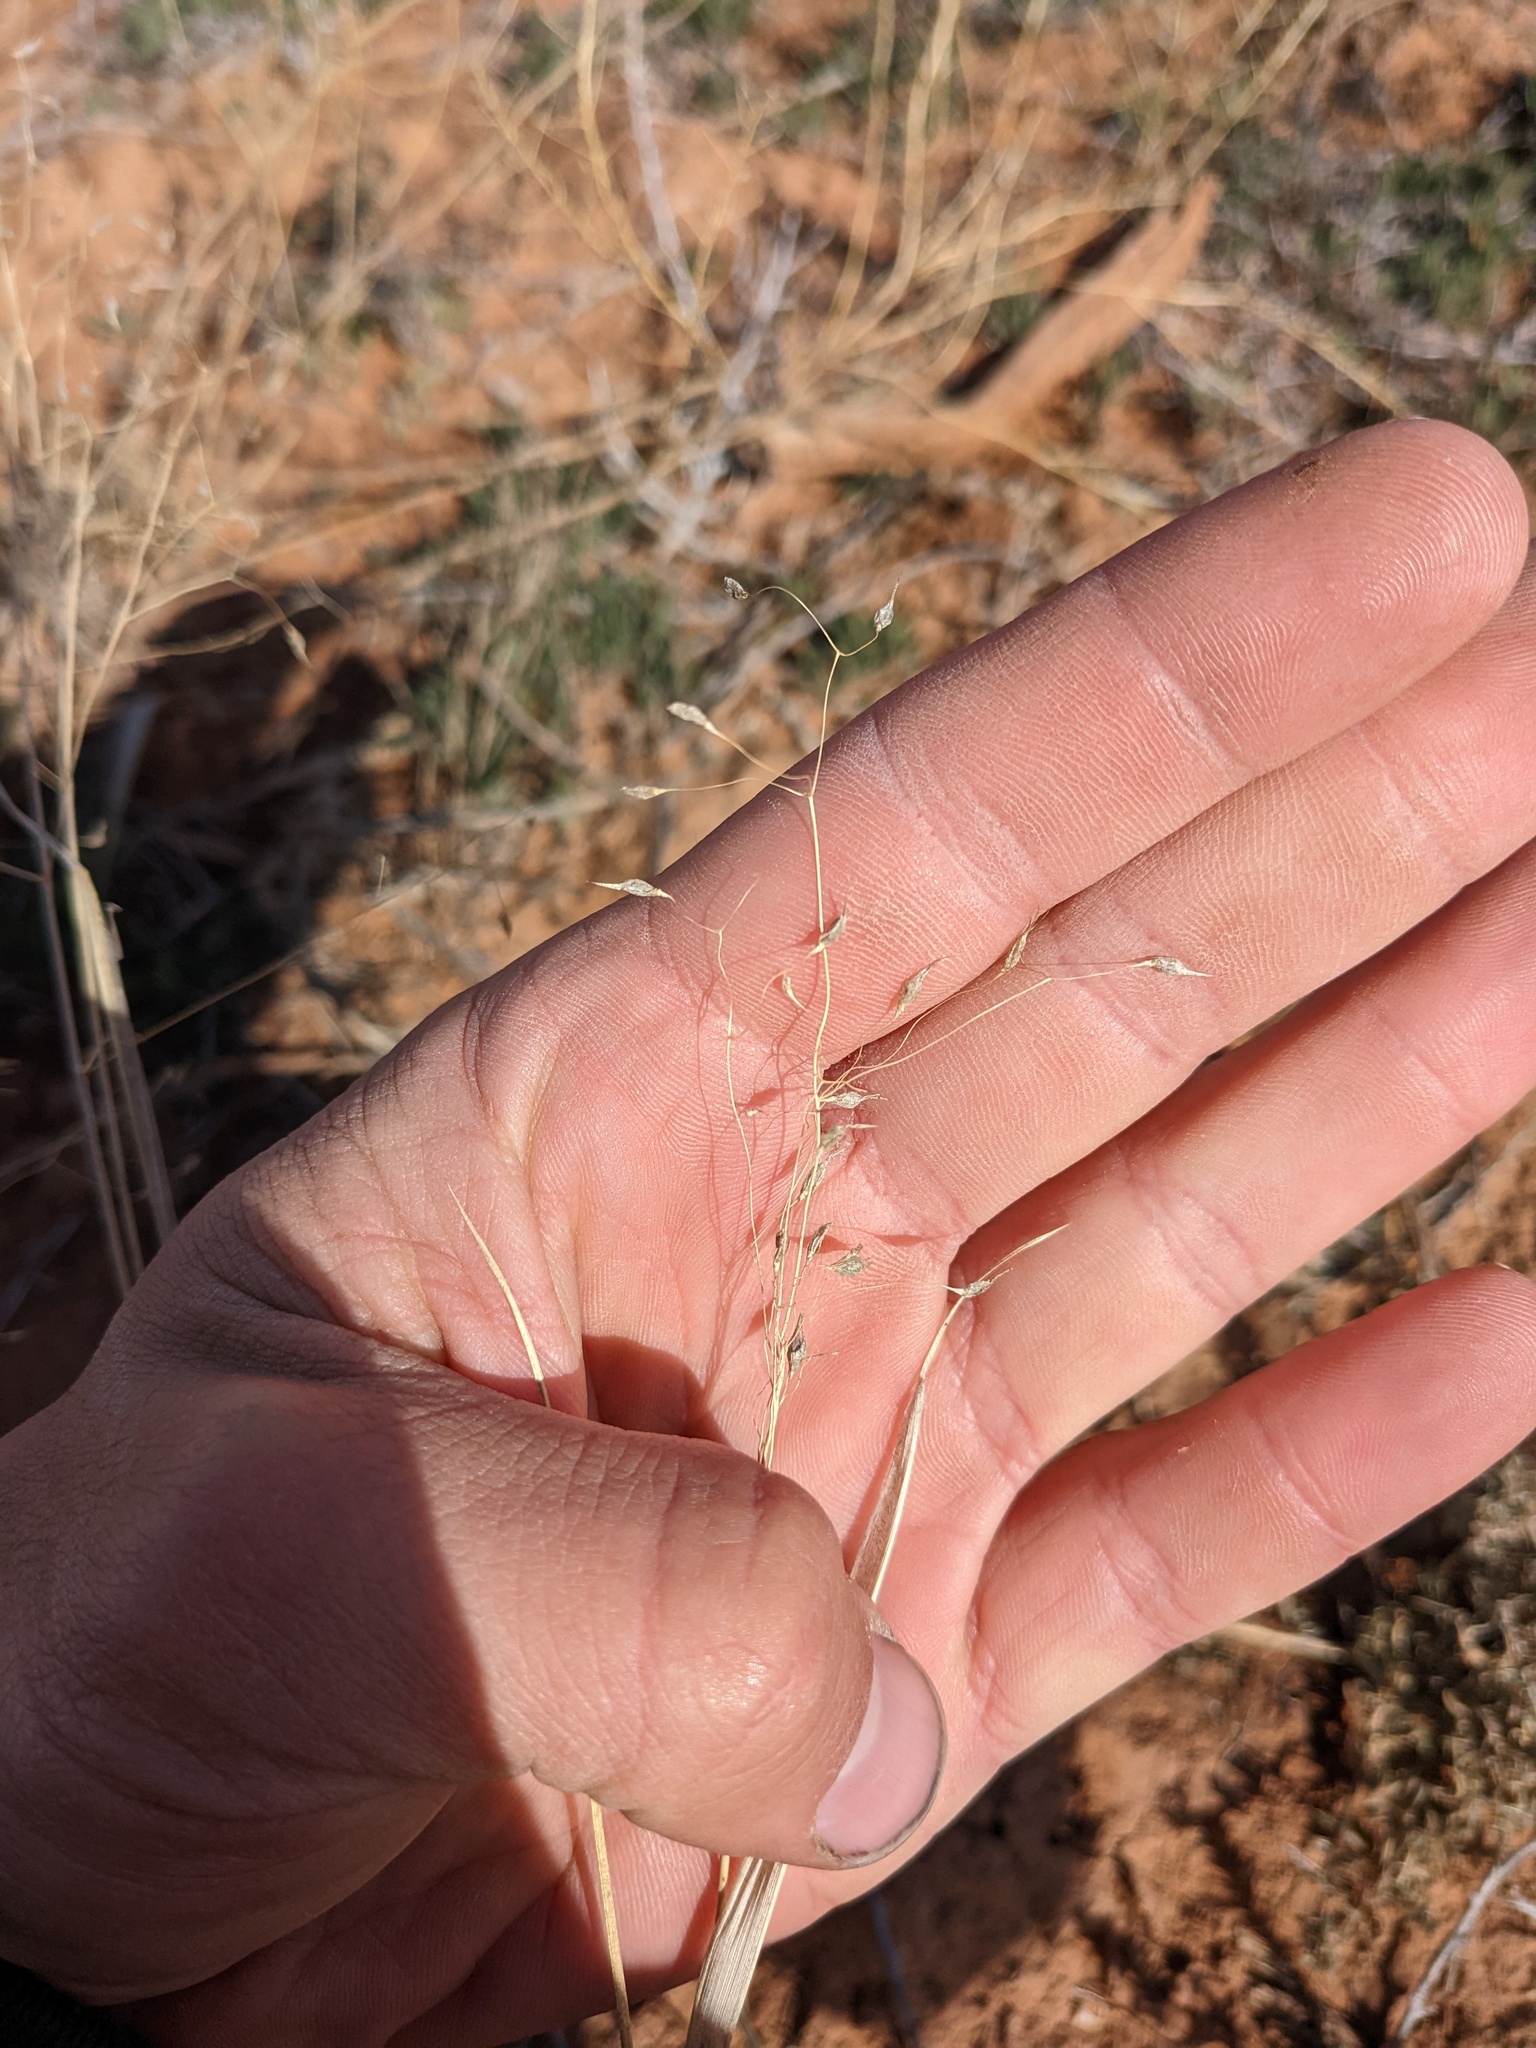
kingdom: Plantae
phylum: Tracheophyta
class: Liliopsida
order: Poales
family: Poaceae
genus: Eriocoma
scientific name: Eriocoma hymenoides
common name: Indian mountain ricegrass
